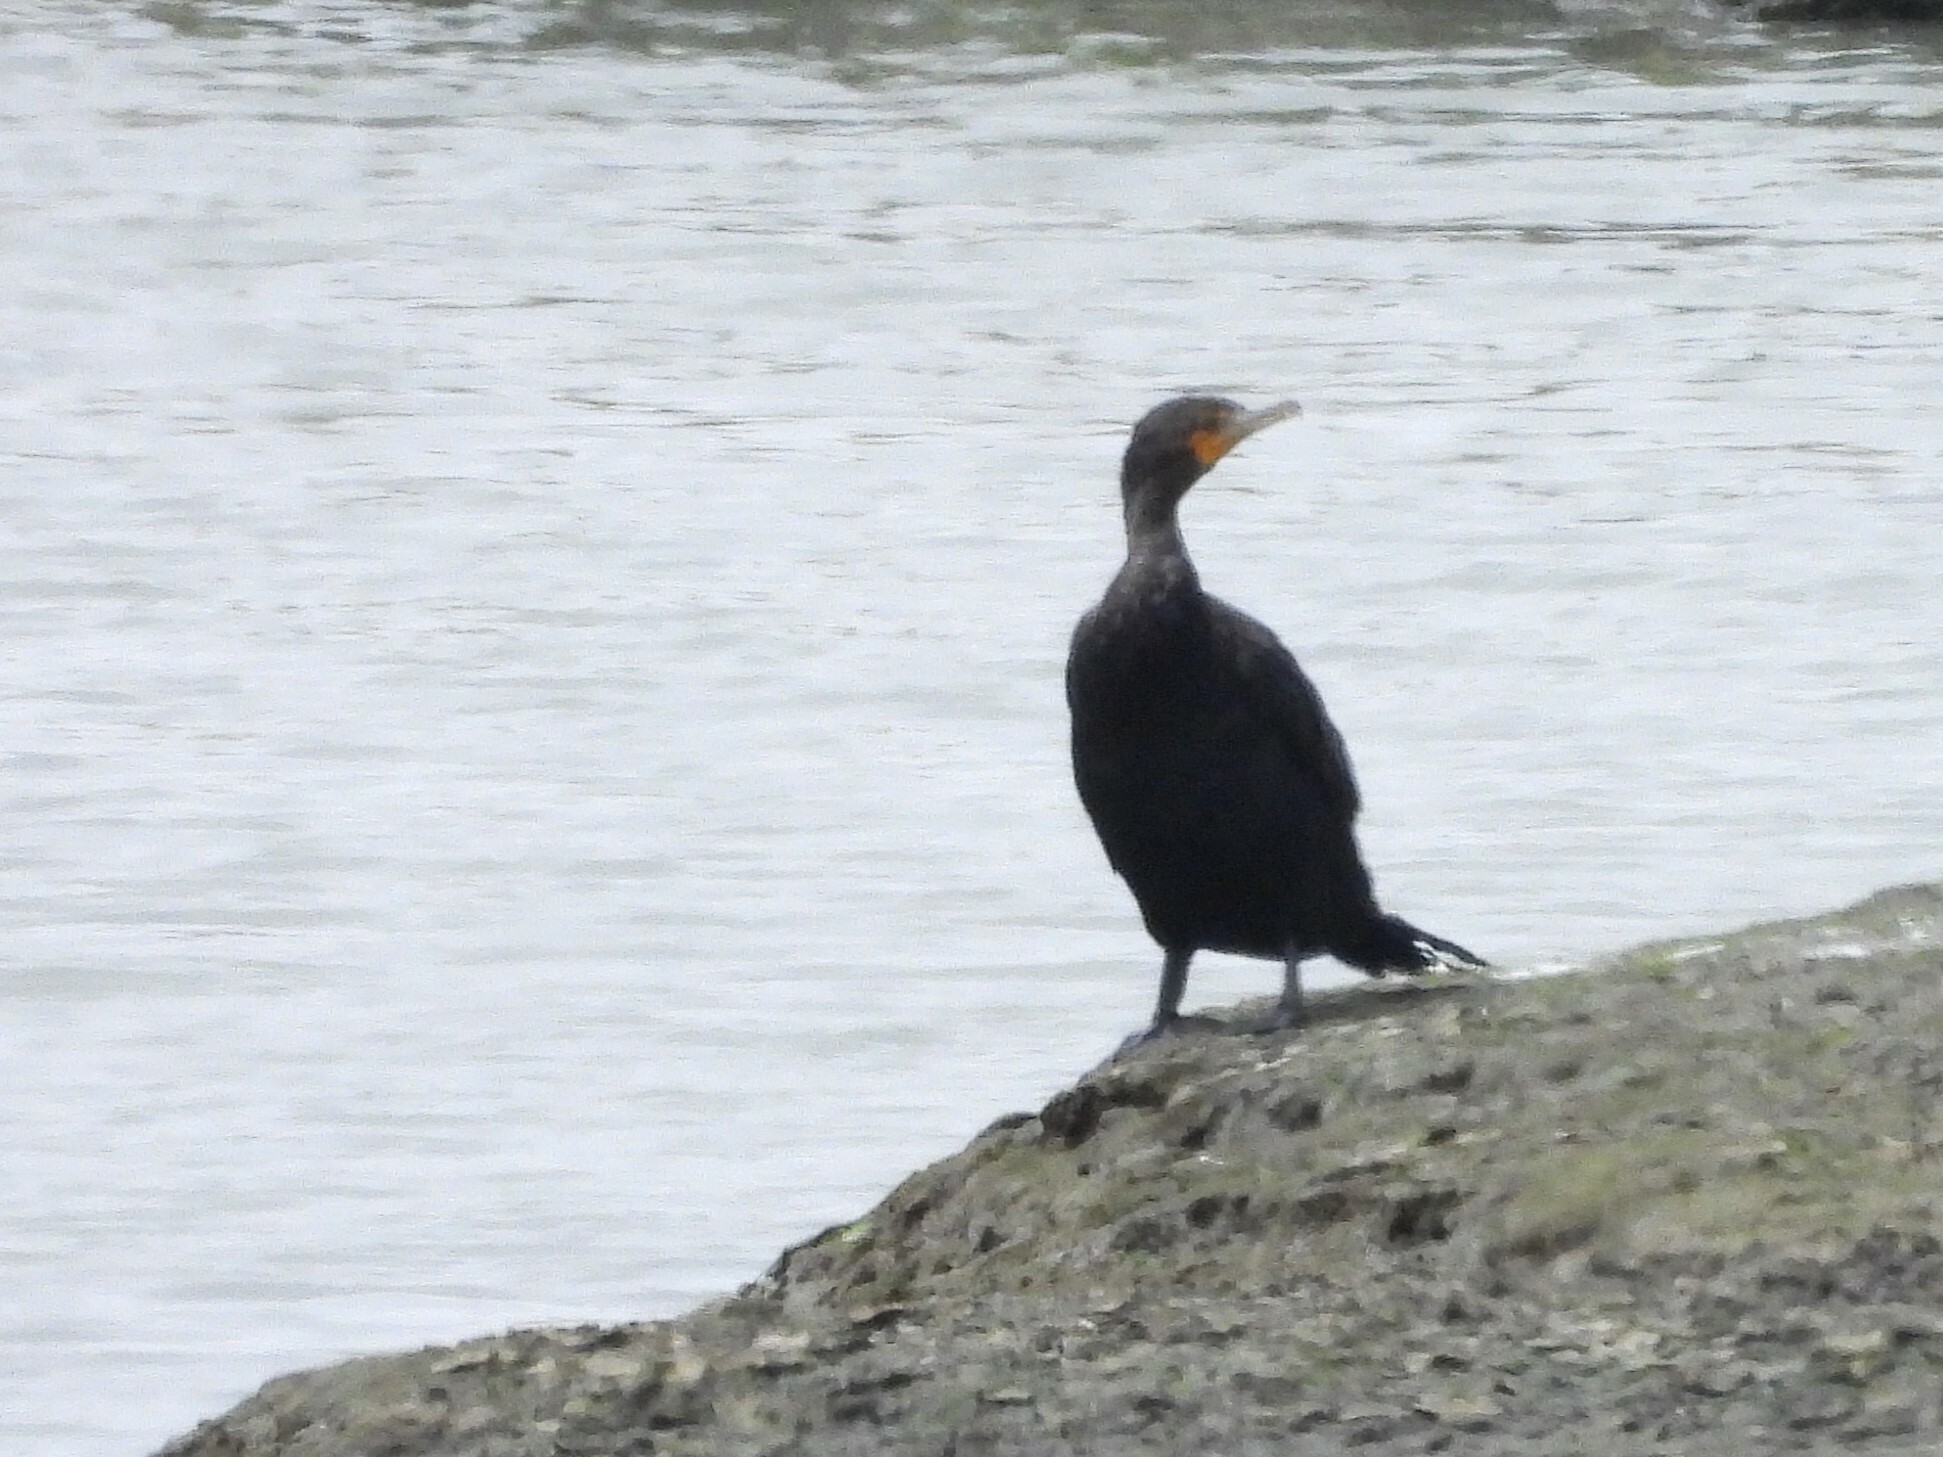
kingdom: Animalia
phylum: Chordata
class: Aves
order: Suliformes
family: Phalacrocoracidae
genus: Phalacrocorax
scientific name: Phalacrocorax auritus
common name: Double-crested cormorant
